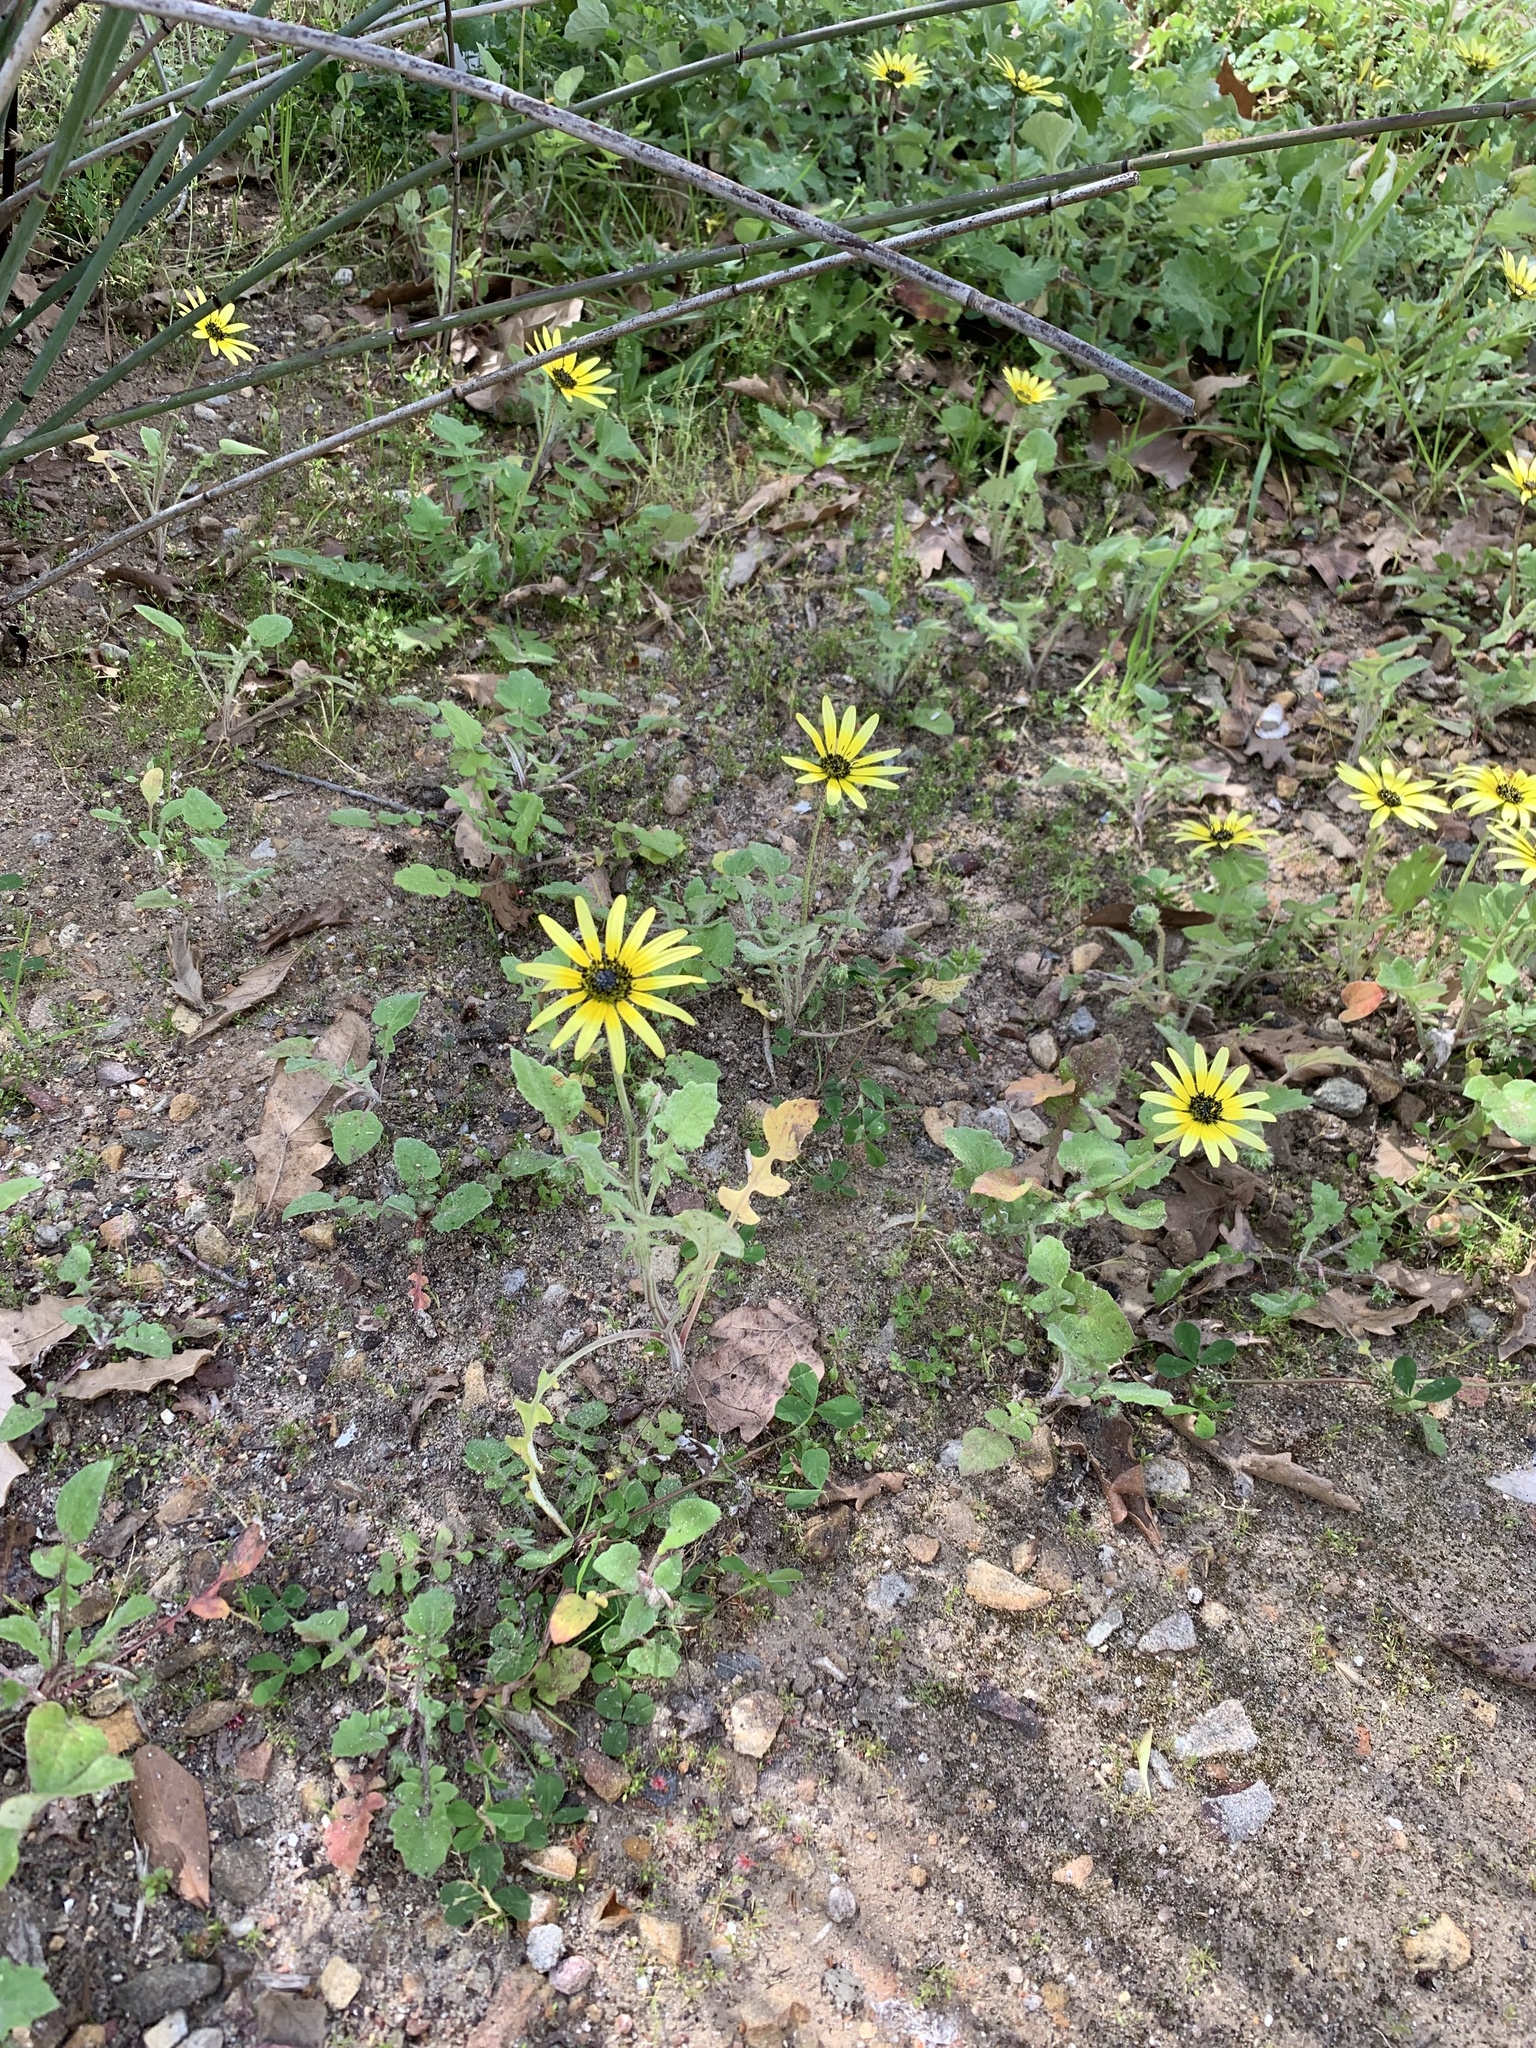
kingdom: Plantae
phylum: Tracheophyta
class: Magnoliopsida
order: Asterales
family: Asteraceae
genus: Arctotheca
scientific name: Arctotheca calendula
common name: Capeweed
